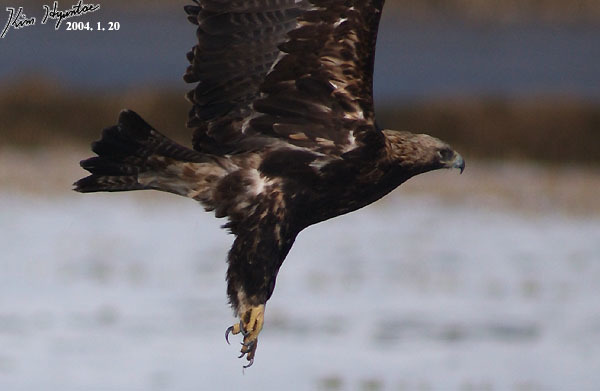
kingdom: Animalia
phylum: Chordata
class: Aves
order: Accipitriformes
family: Accipitridae
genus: Aquila
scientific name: Aquila heliaca
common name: Eastern imperial eagle
